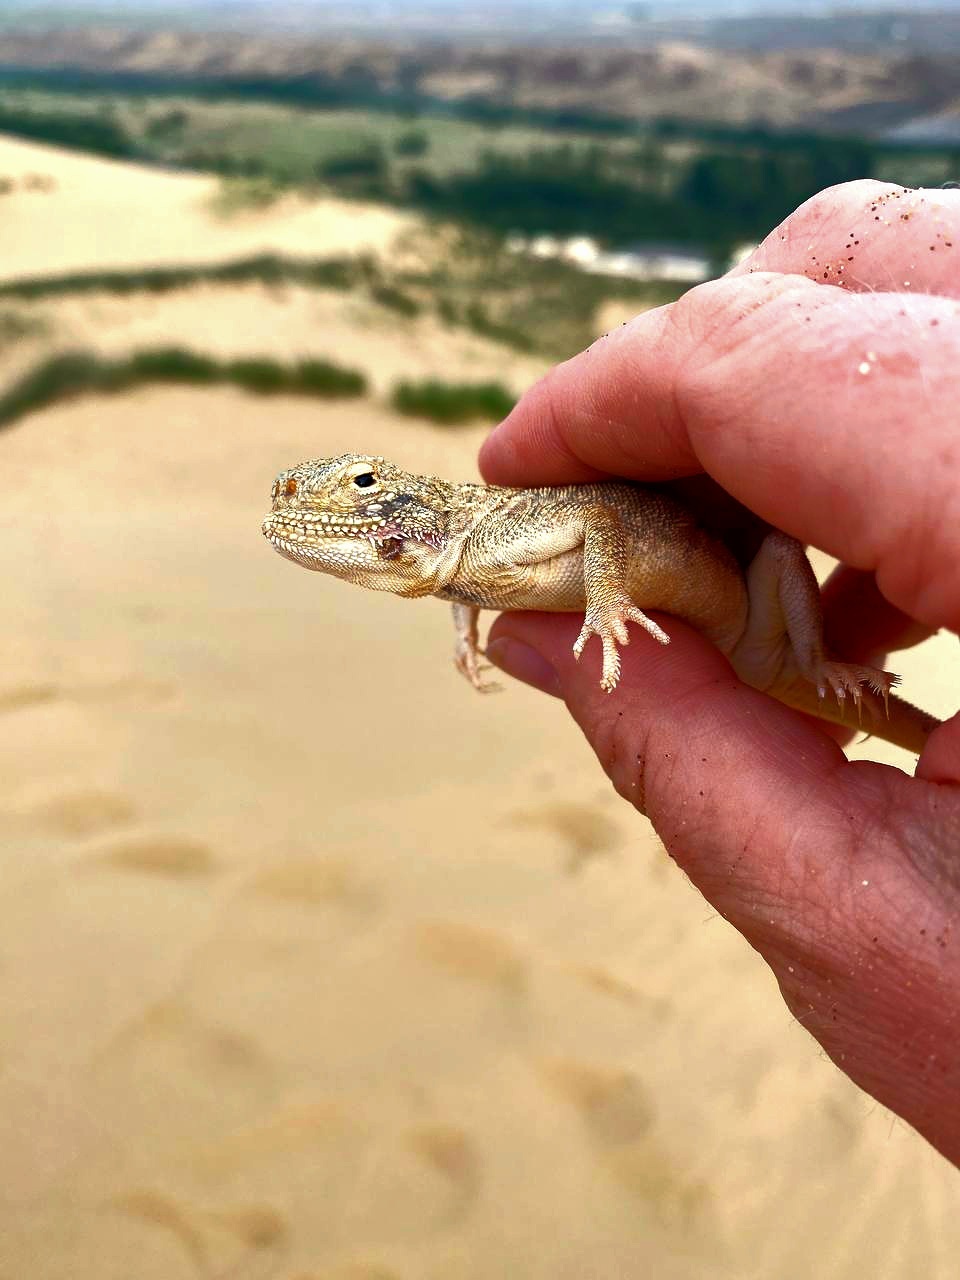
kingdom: Animalia
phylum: Chordata
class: Squamata
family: Agamidae
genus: Phrynocephalus
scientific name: Phrynocephalus mystaceus
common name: Secret toadhead agama
